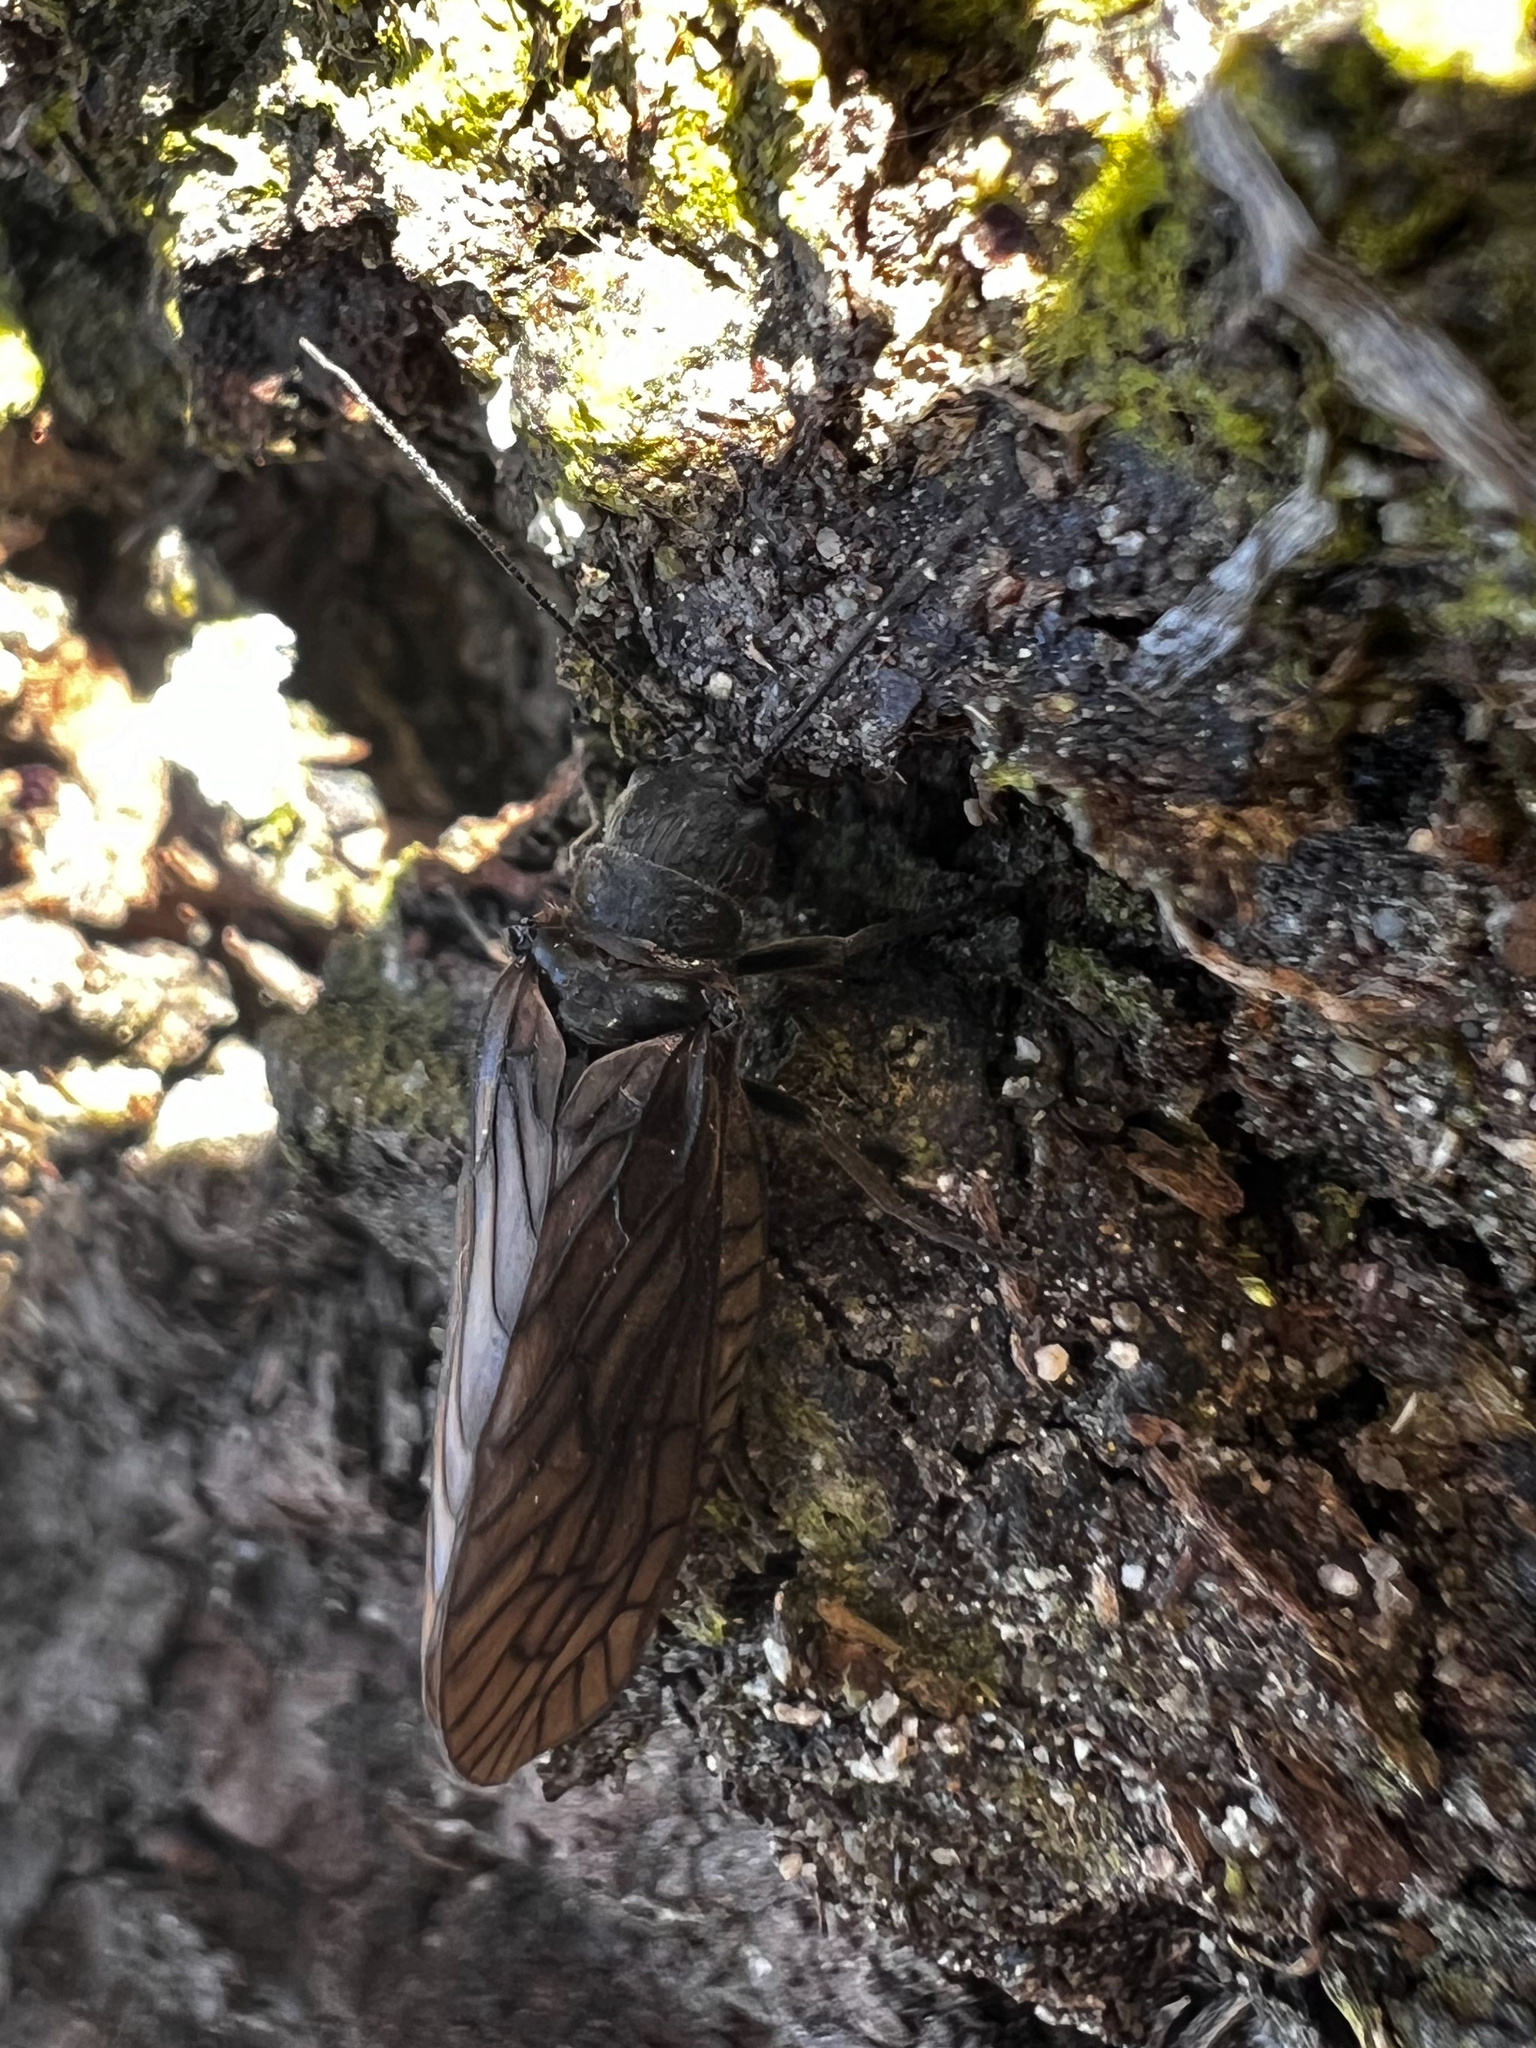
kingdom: Animalia
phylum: Arthropoda
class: Insecta
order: Megaloptera
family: Sialidae
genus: Sialis
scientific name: Sialis californica
